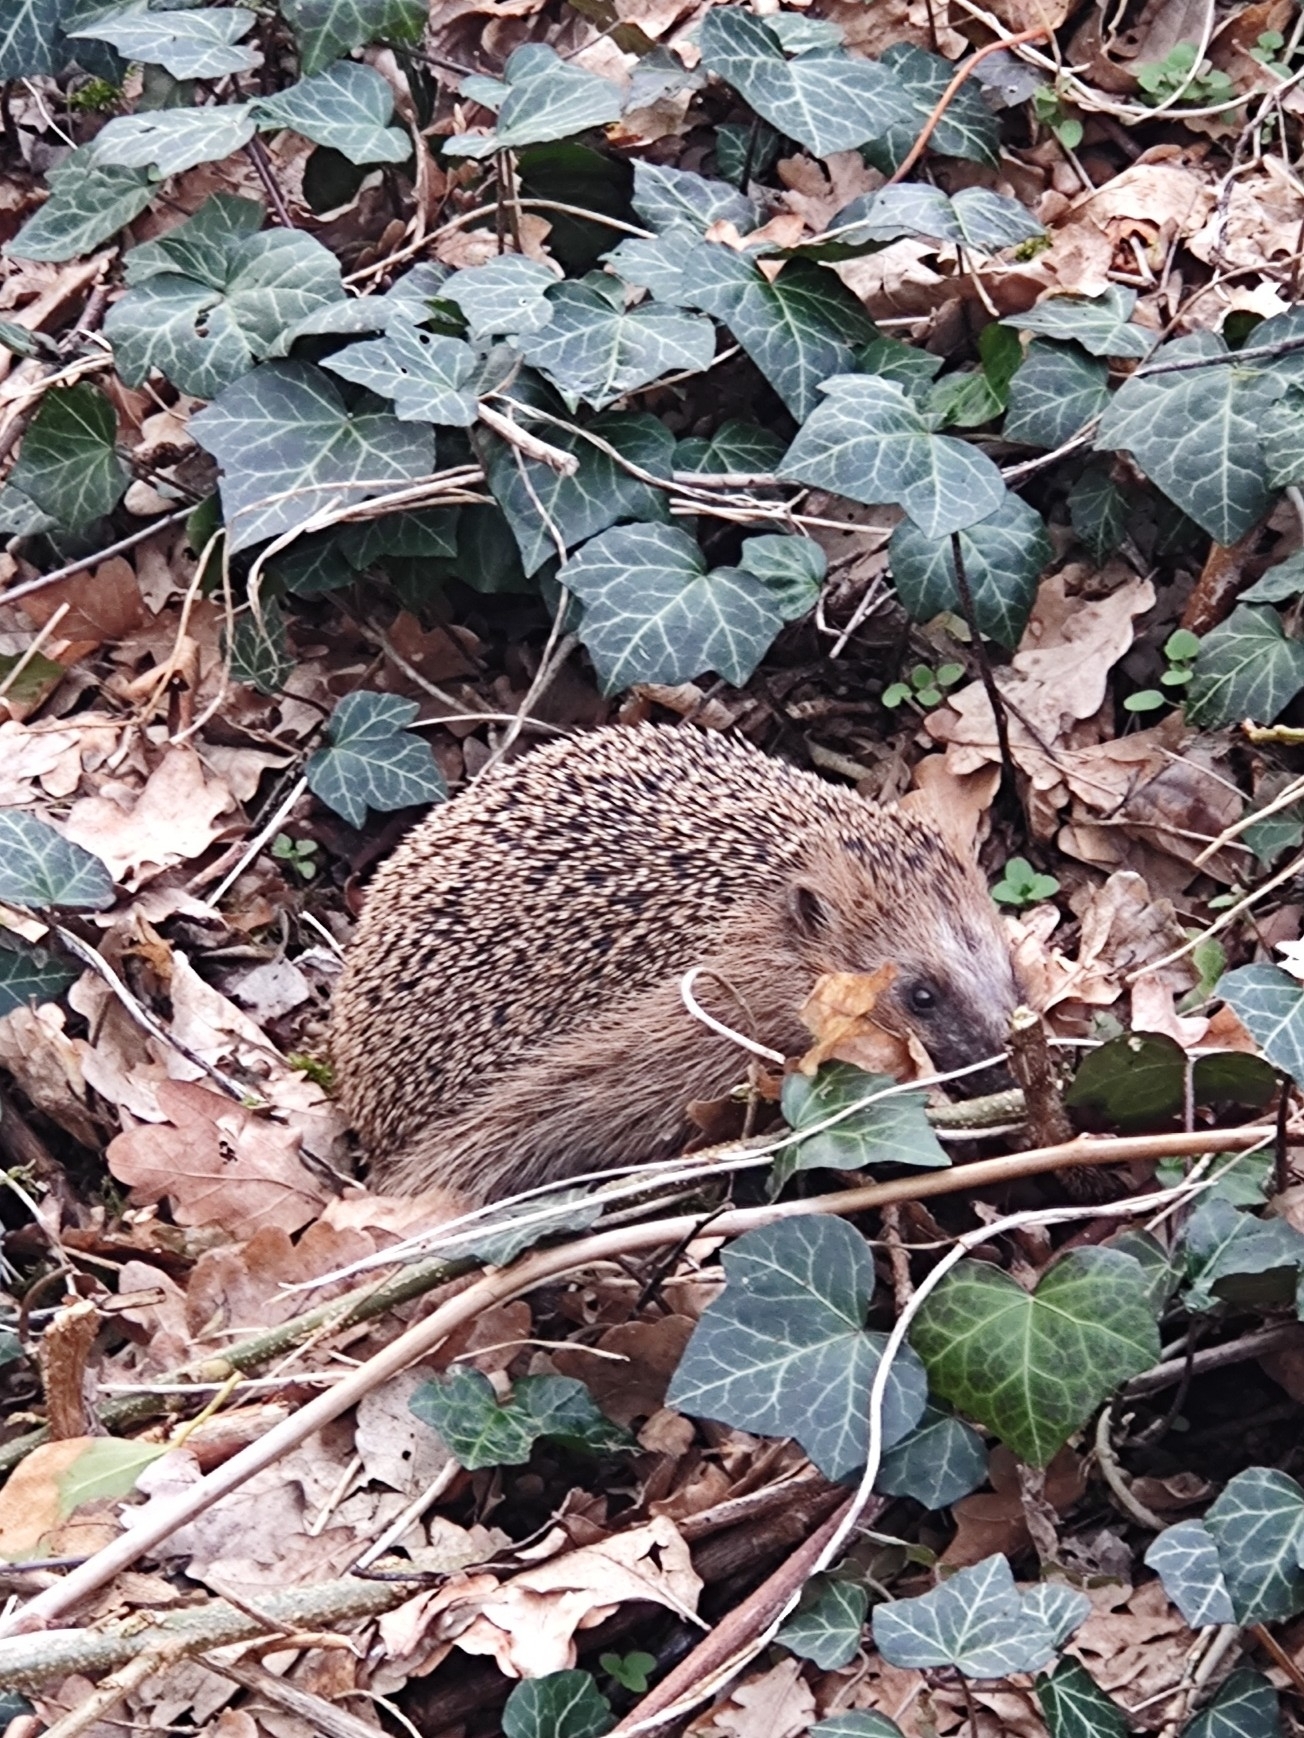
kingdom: Animalia
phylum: Chordata
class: Mammalia
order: Erinaceomorpha
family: Erinaceidae
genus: Erinaceus
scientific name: Erinaceus europaeus
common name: West european hedgehog
